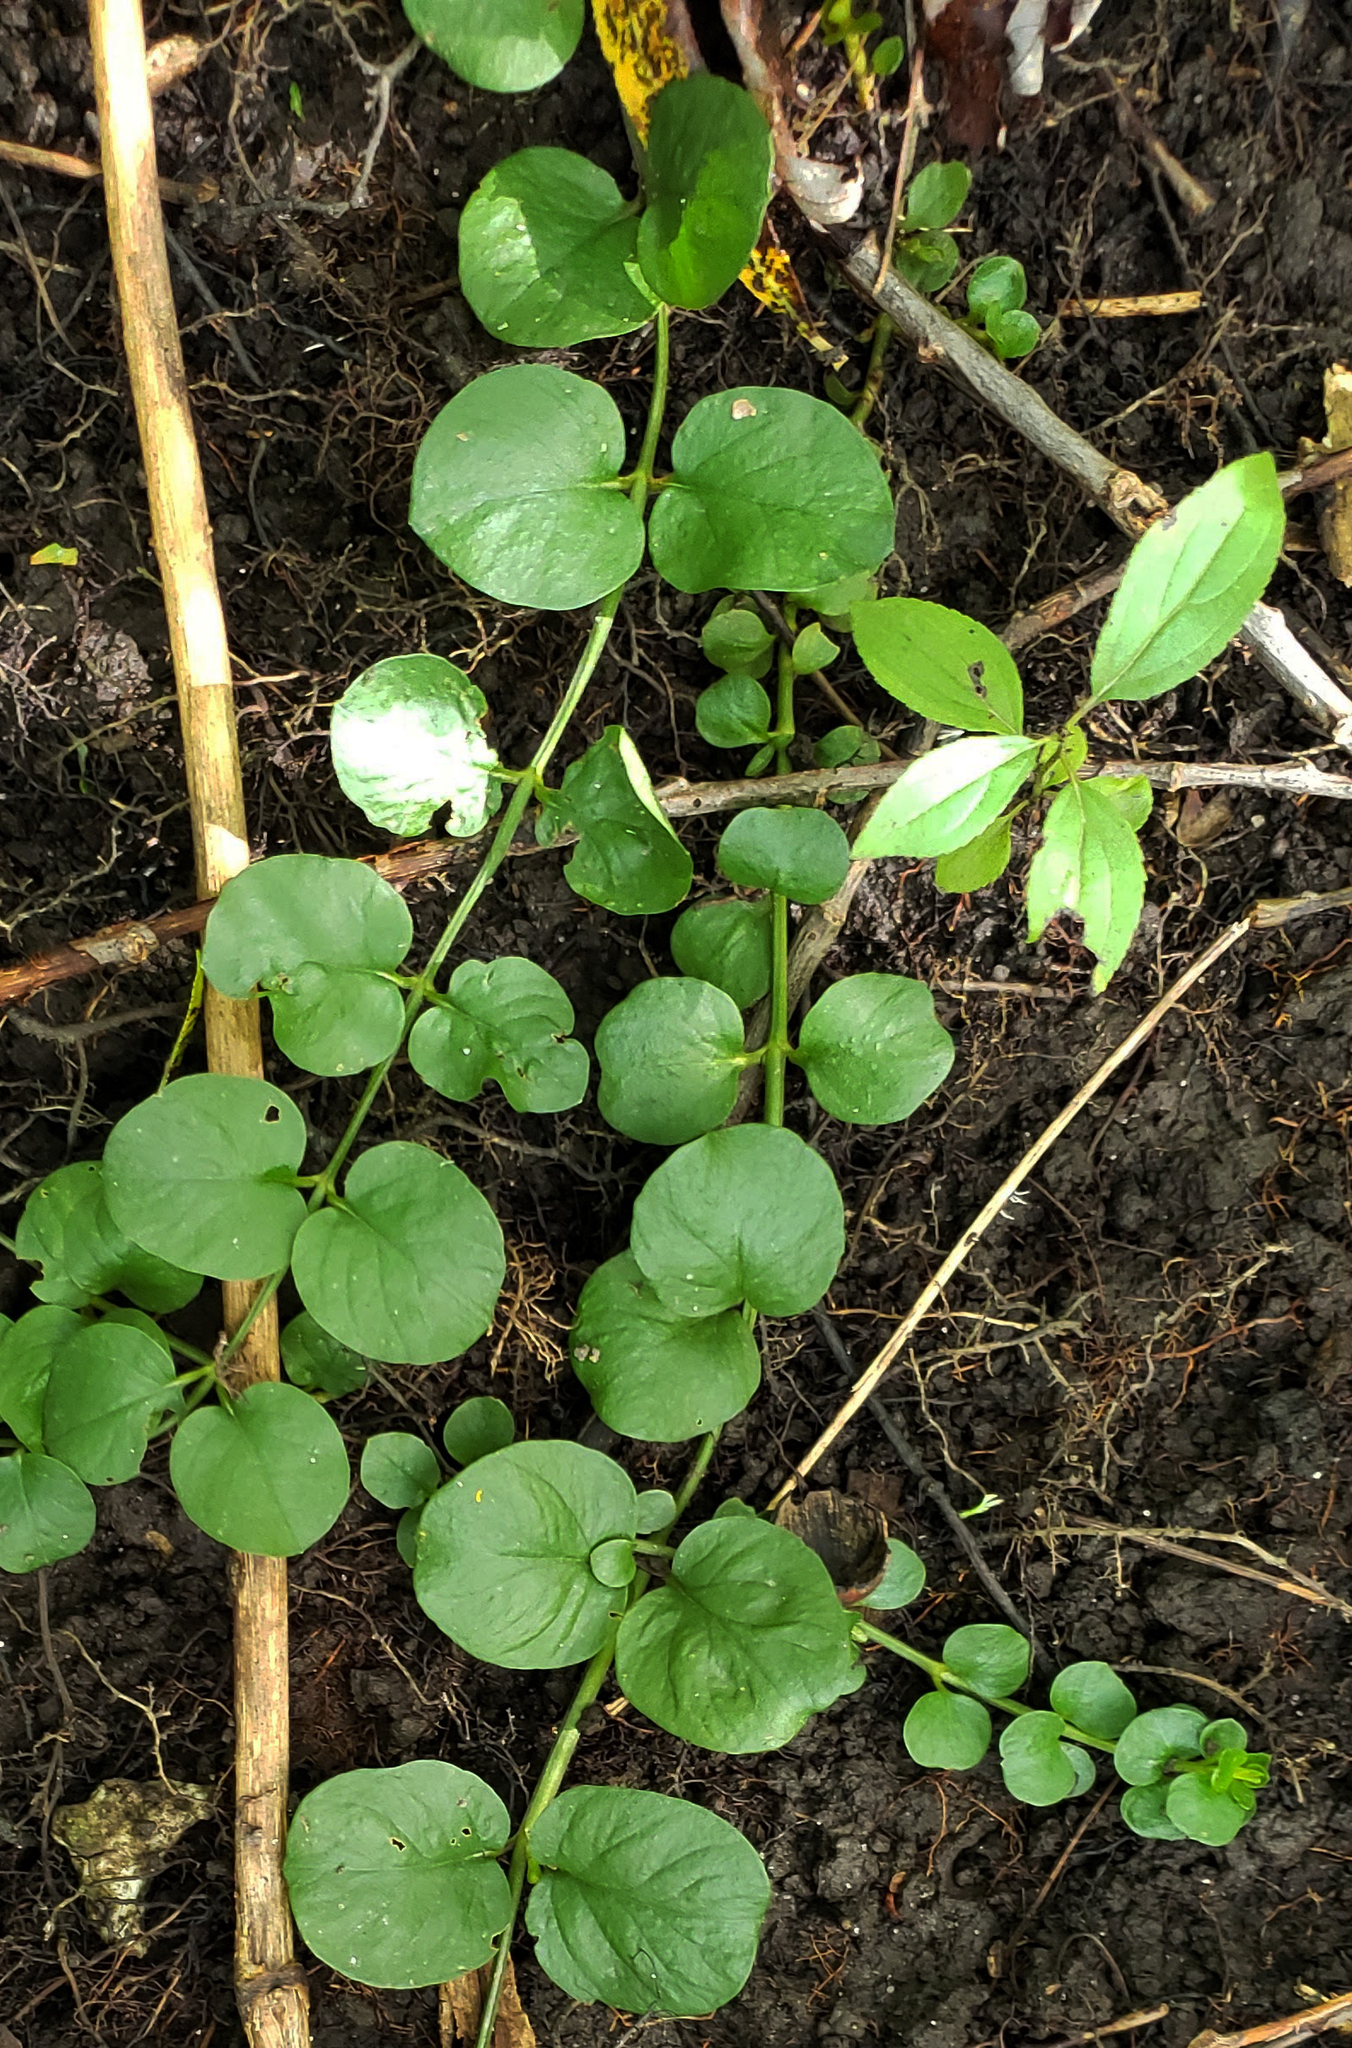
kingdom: Plantae
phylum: Tracheophyta
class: Magnoliopsida
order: Ericales
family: Primulaceae
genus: Lysimachia
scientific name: Lysimachia nummularia
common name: Moneywort
